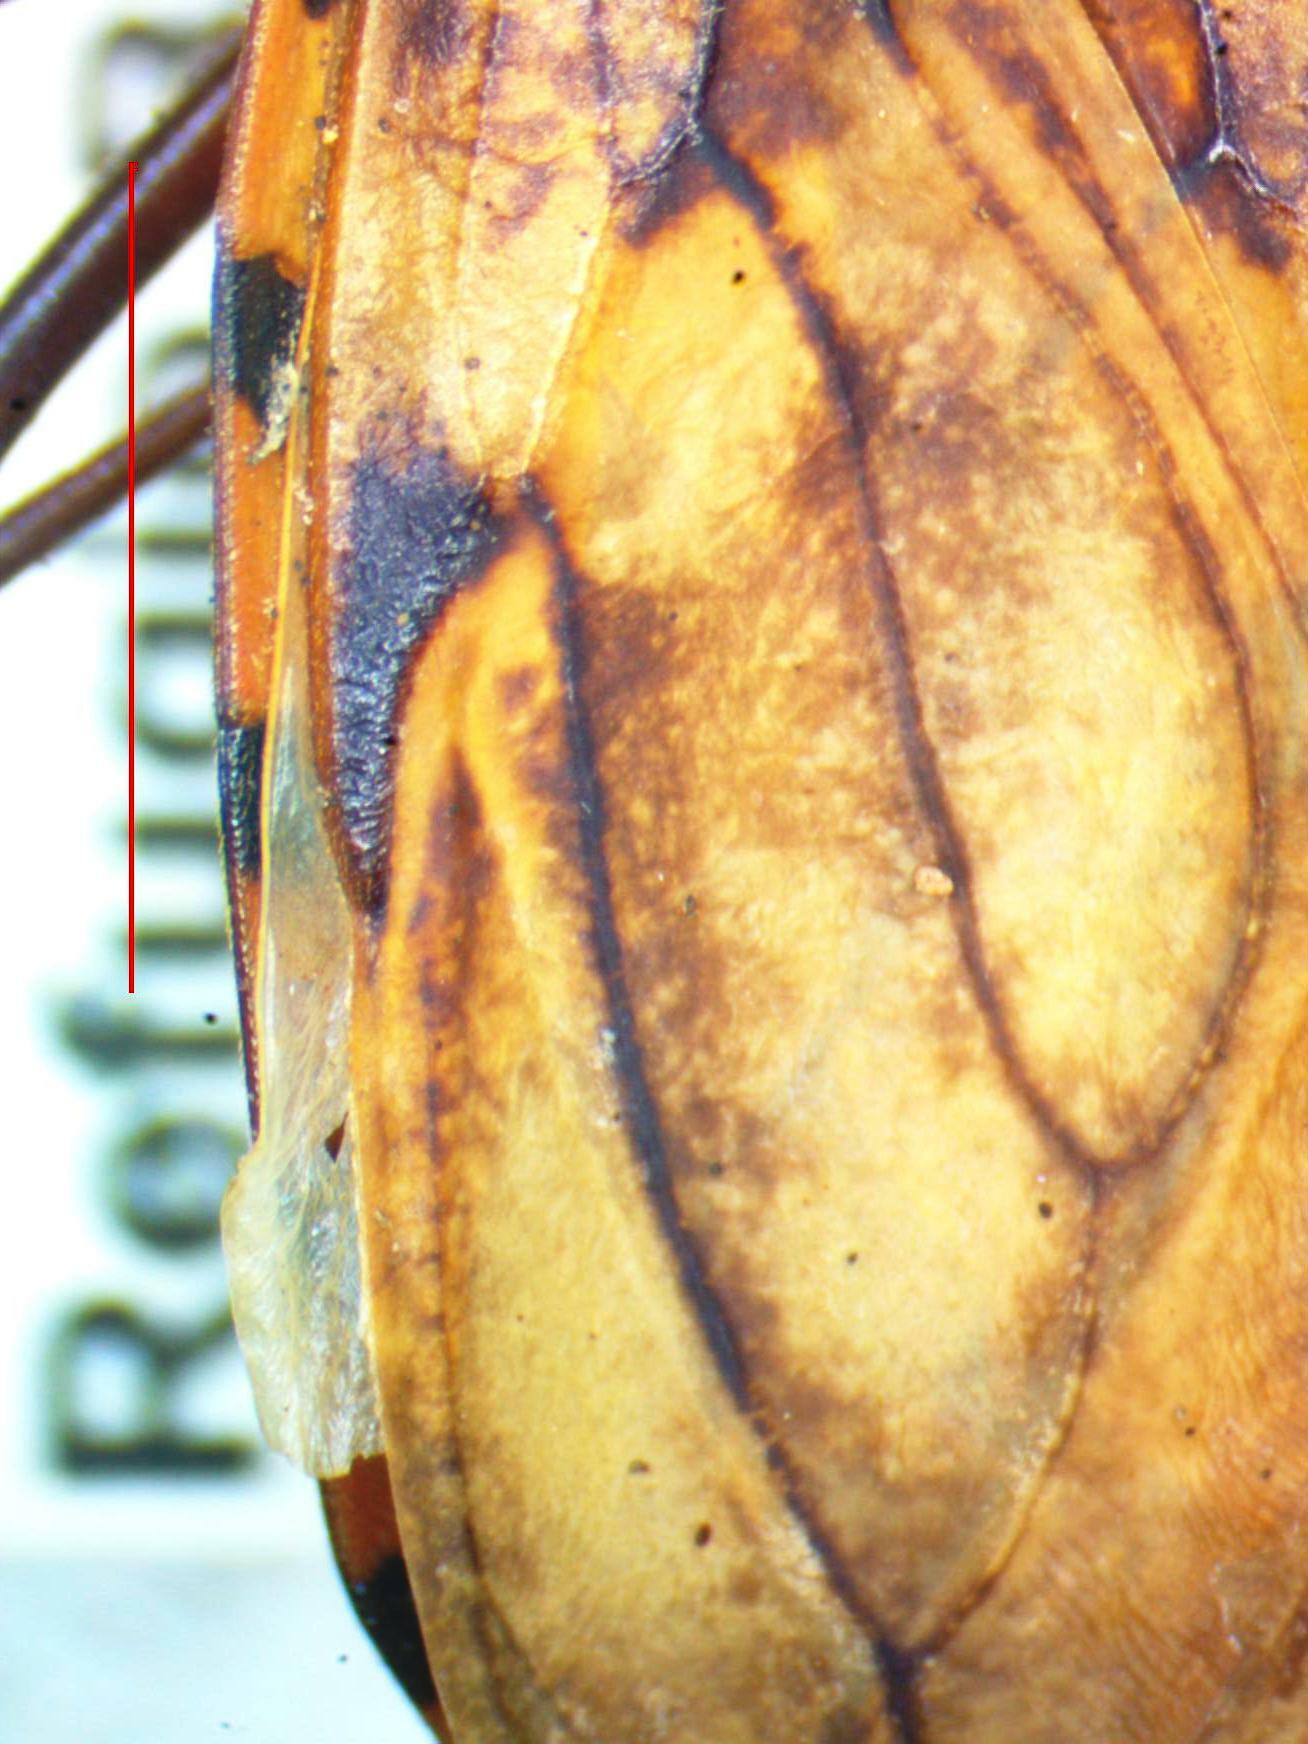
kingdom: Animalia
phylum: Arthropoda
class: Insecta
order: Hemiptera
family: Reduviidae
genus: Panstrongylus
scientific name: Panstrongylus geniculatus
